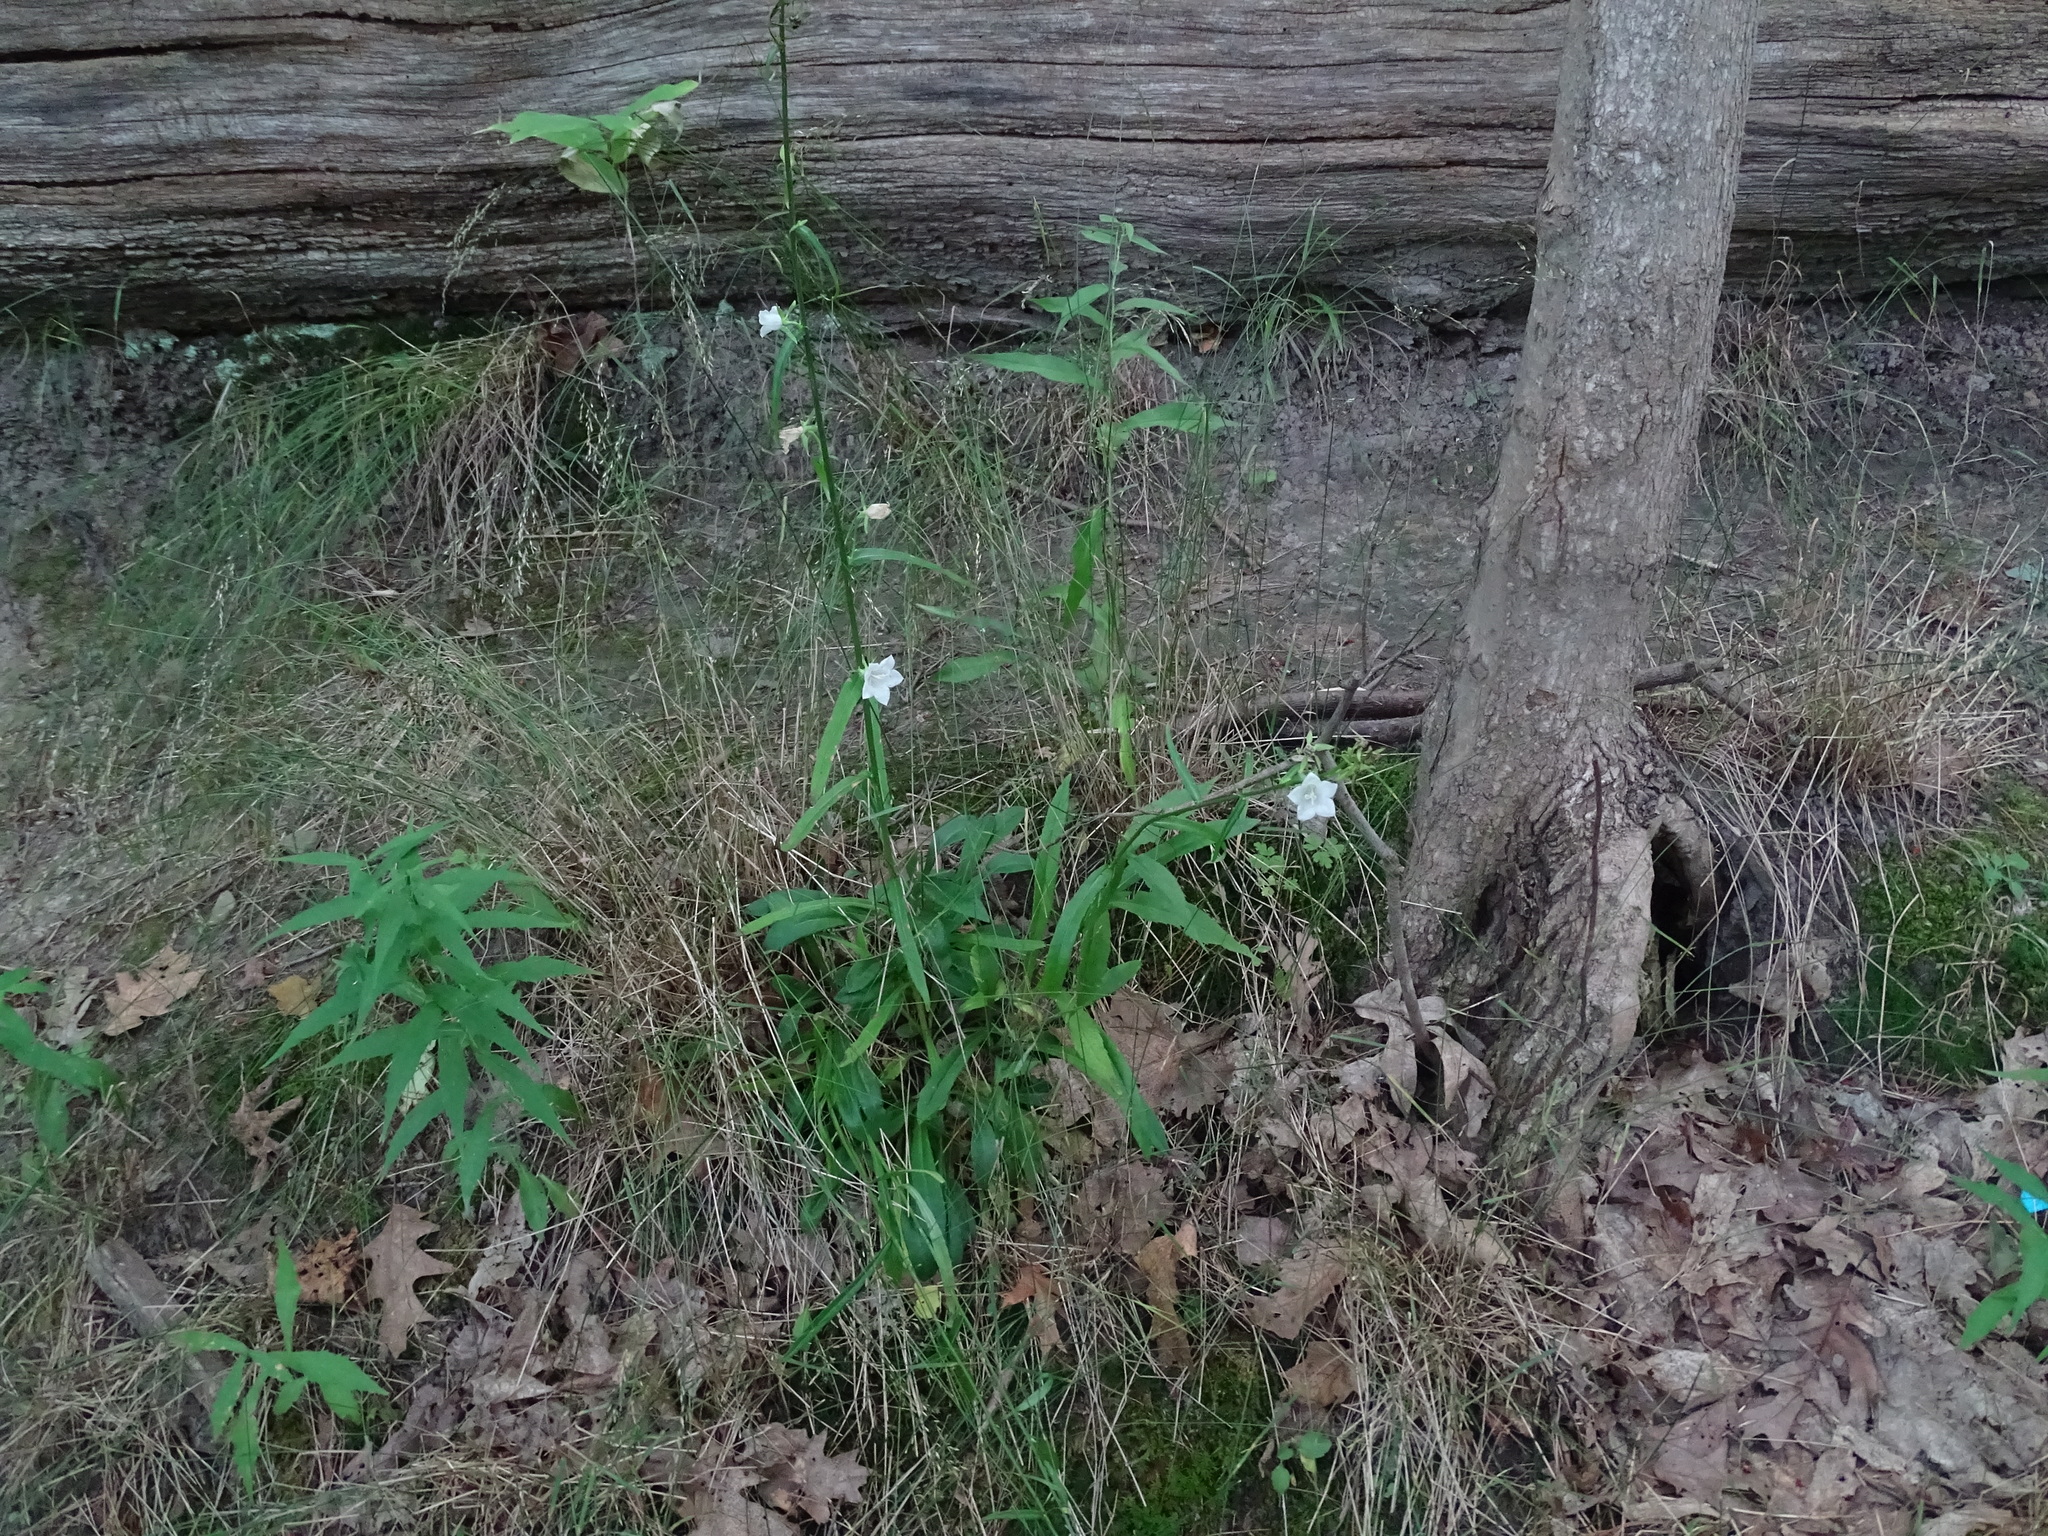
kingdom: Plantae
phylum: Tracheophyta
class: Magnoliopsida
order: Asterales
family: Campanulaceae
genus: Campanula
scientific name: Campanula persicifolia
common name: Peach-leaved bellflower
